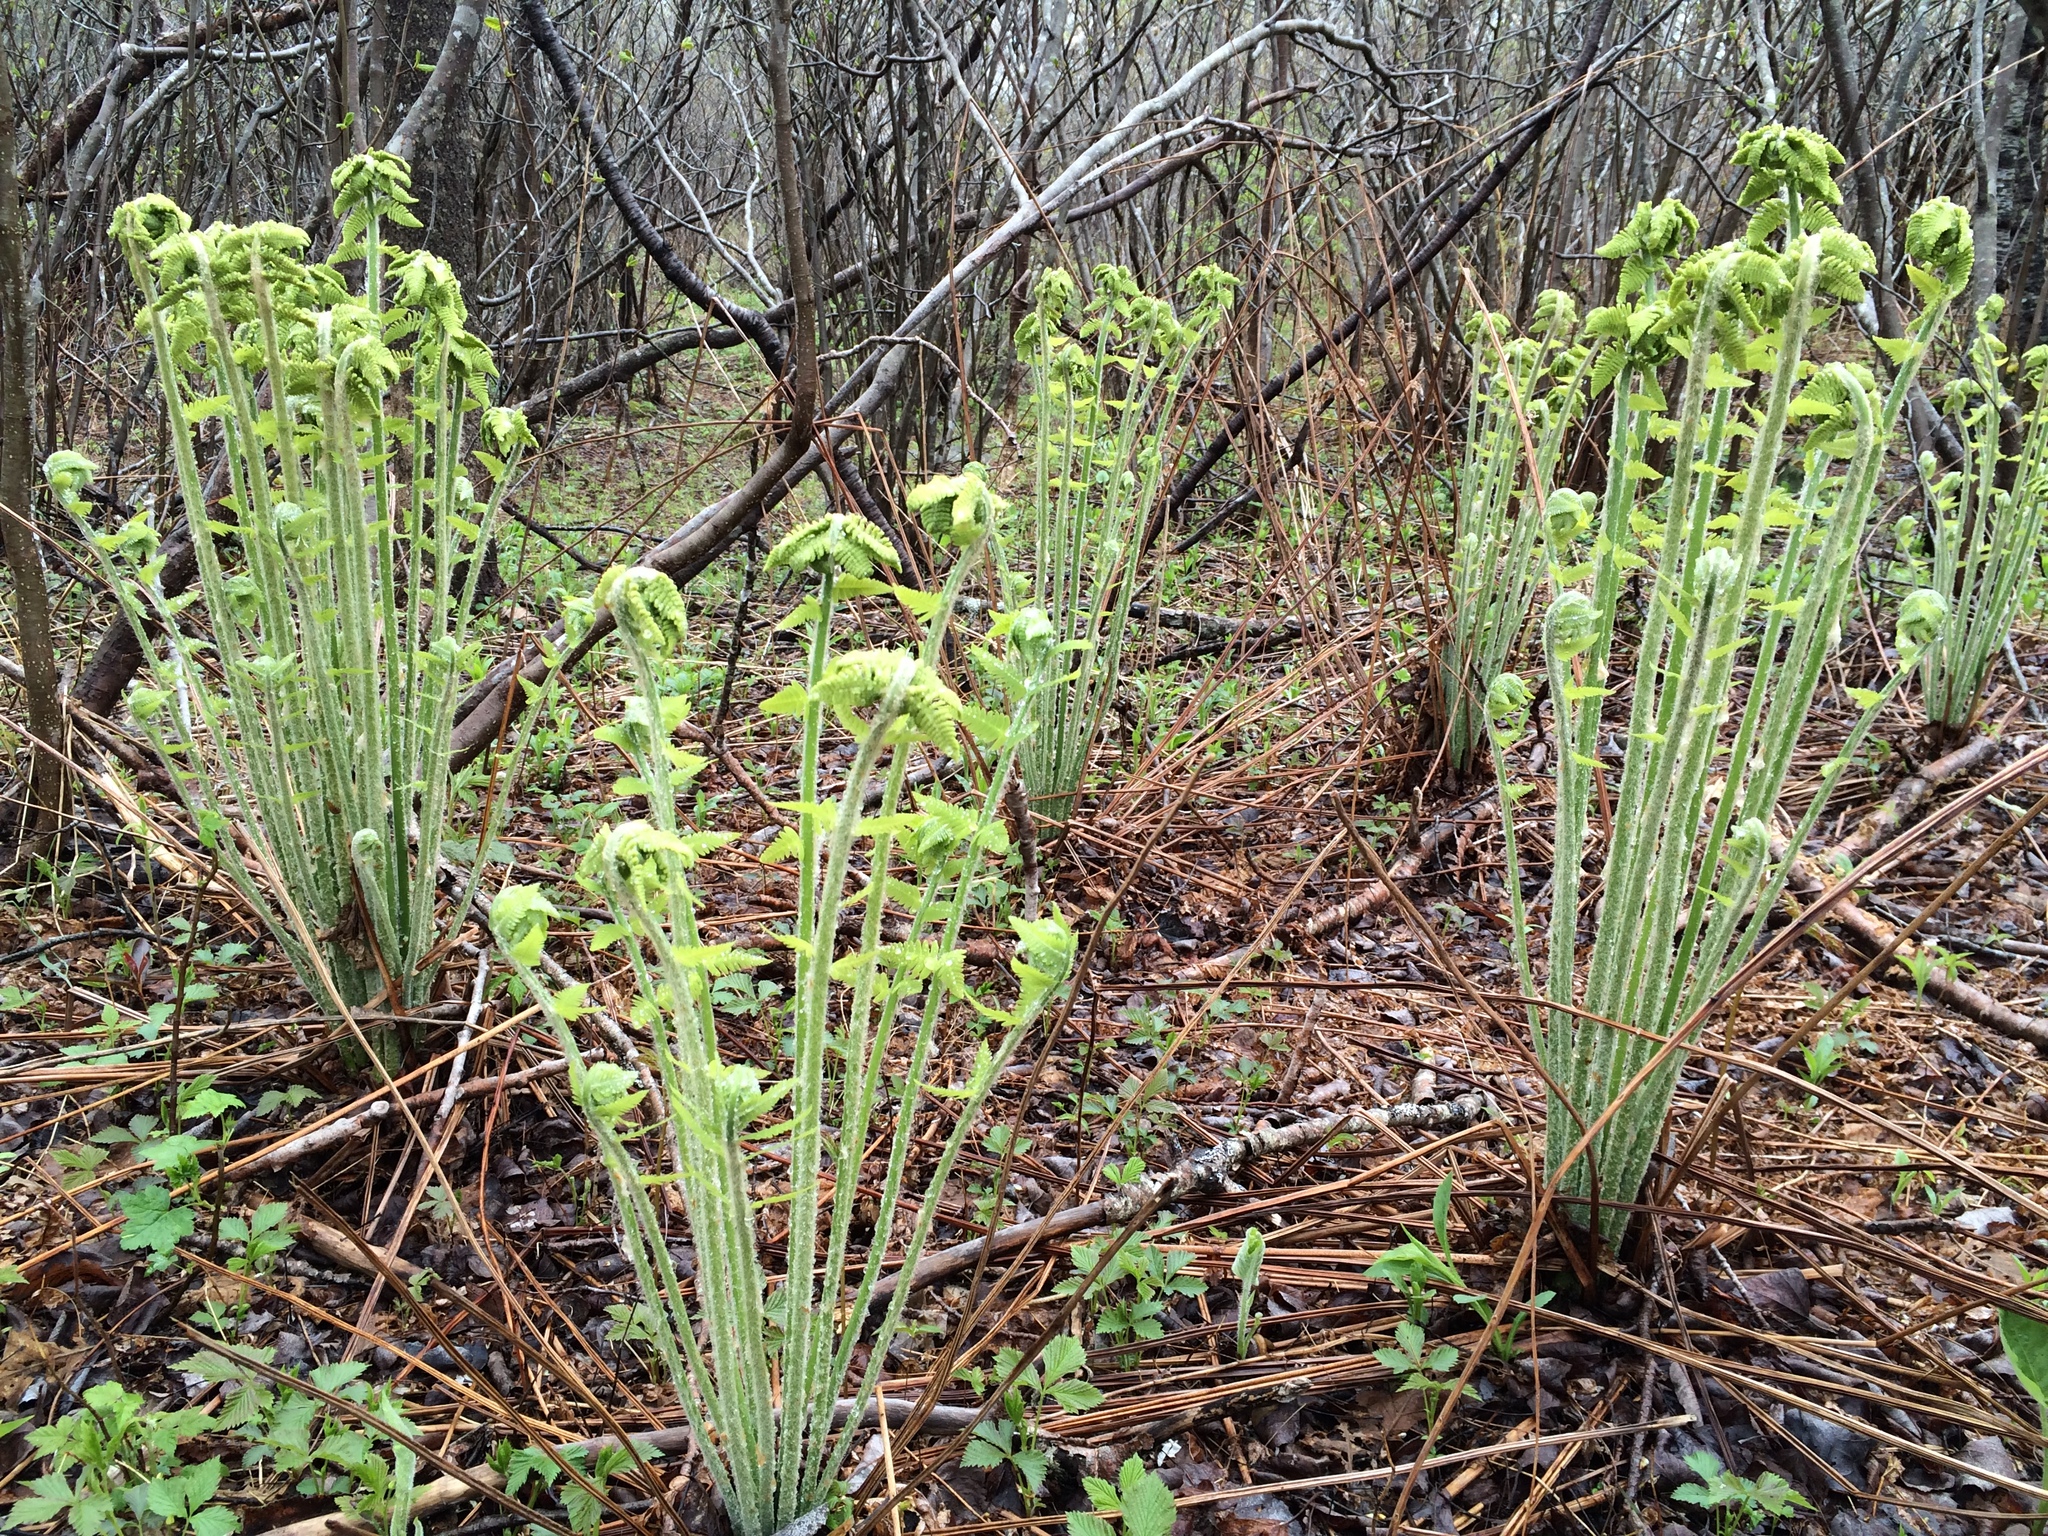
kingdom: Plantae
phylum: Tracheophyta
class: Polypodiopsida
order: Osmundales
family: Osmundaceae
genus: Claytosmunda
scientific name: Claytosmunda claytoniana
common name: Clayton's fern
